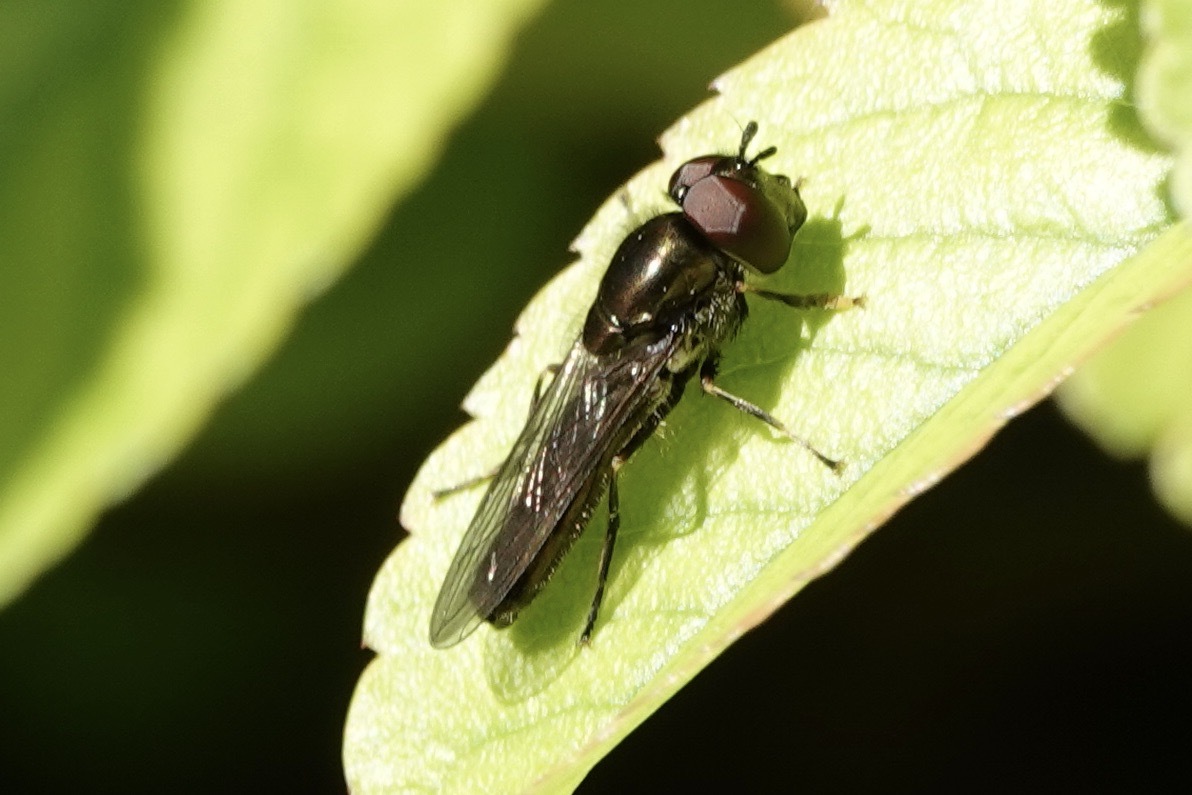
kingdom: Animalia
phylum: Arthropoda
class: Insecta
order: Diptera
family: Syrphidae
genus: Platycheirus
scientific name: Platycheirus albimanus
